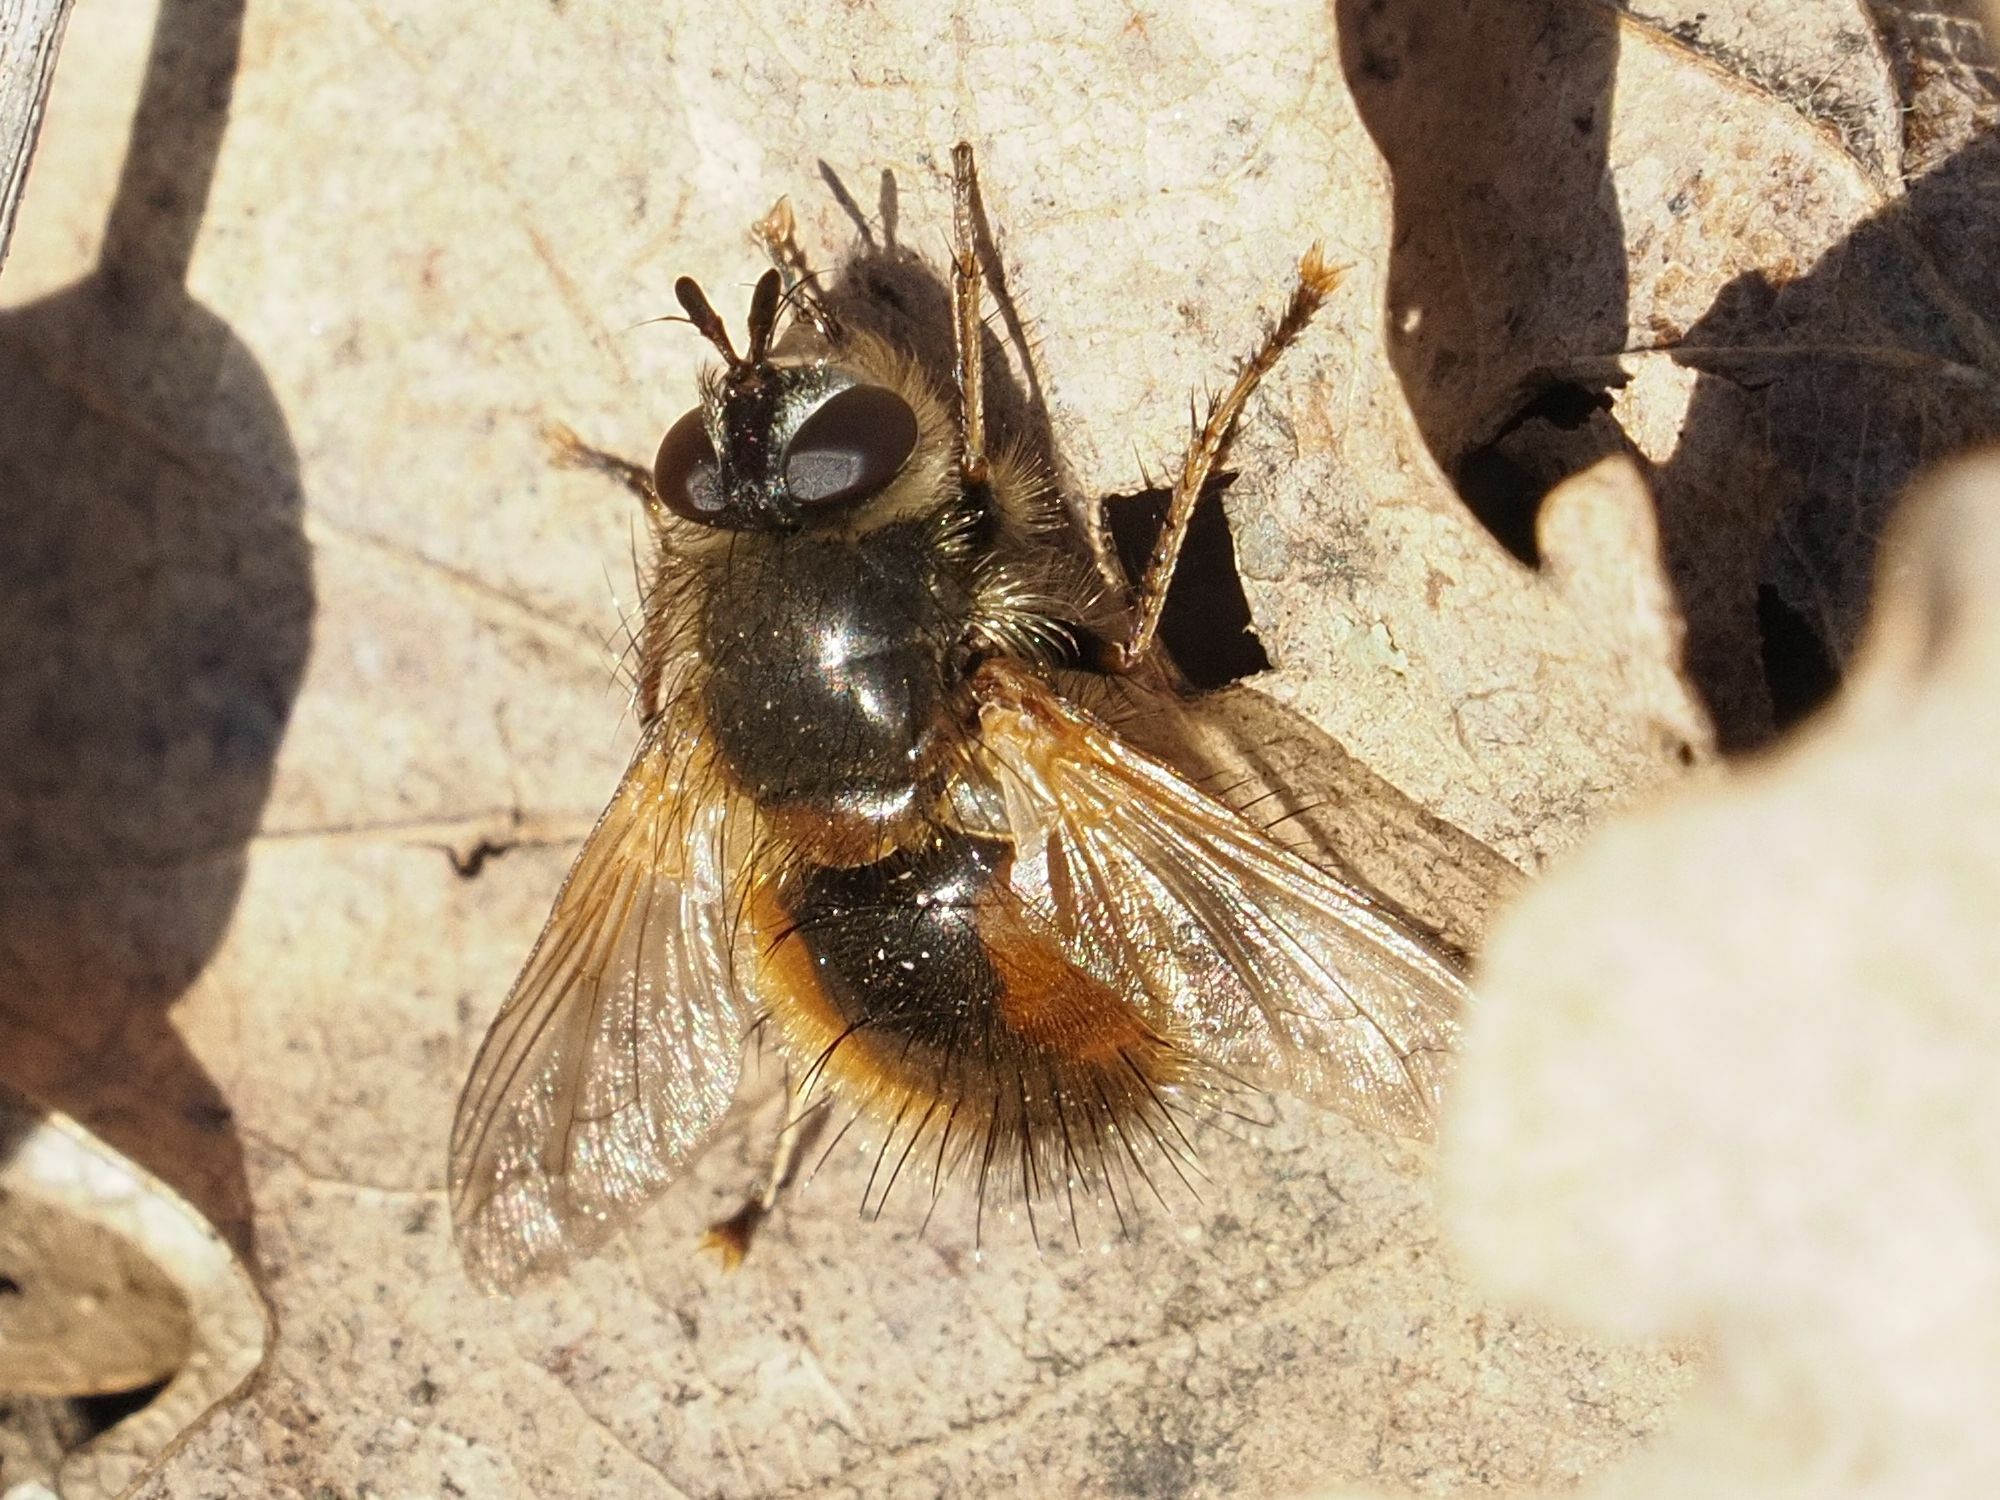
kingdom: Animalia
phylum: Arthropoda
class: Insecta
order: Diptera
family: Tachinidae
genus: Tachina
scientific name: Tachina lurida
